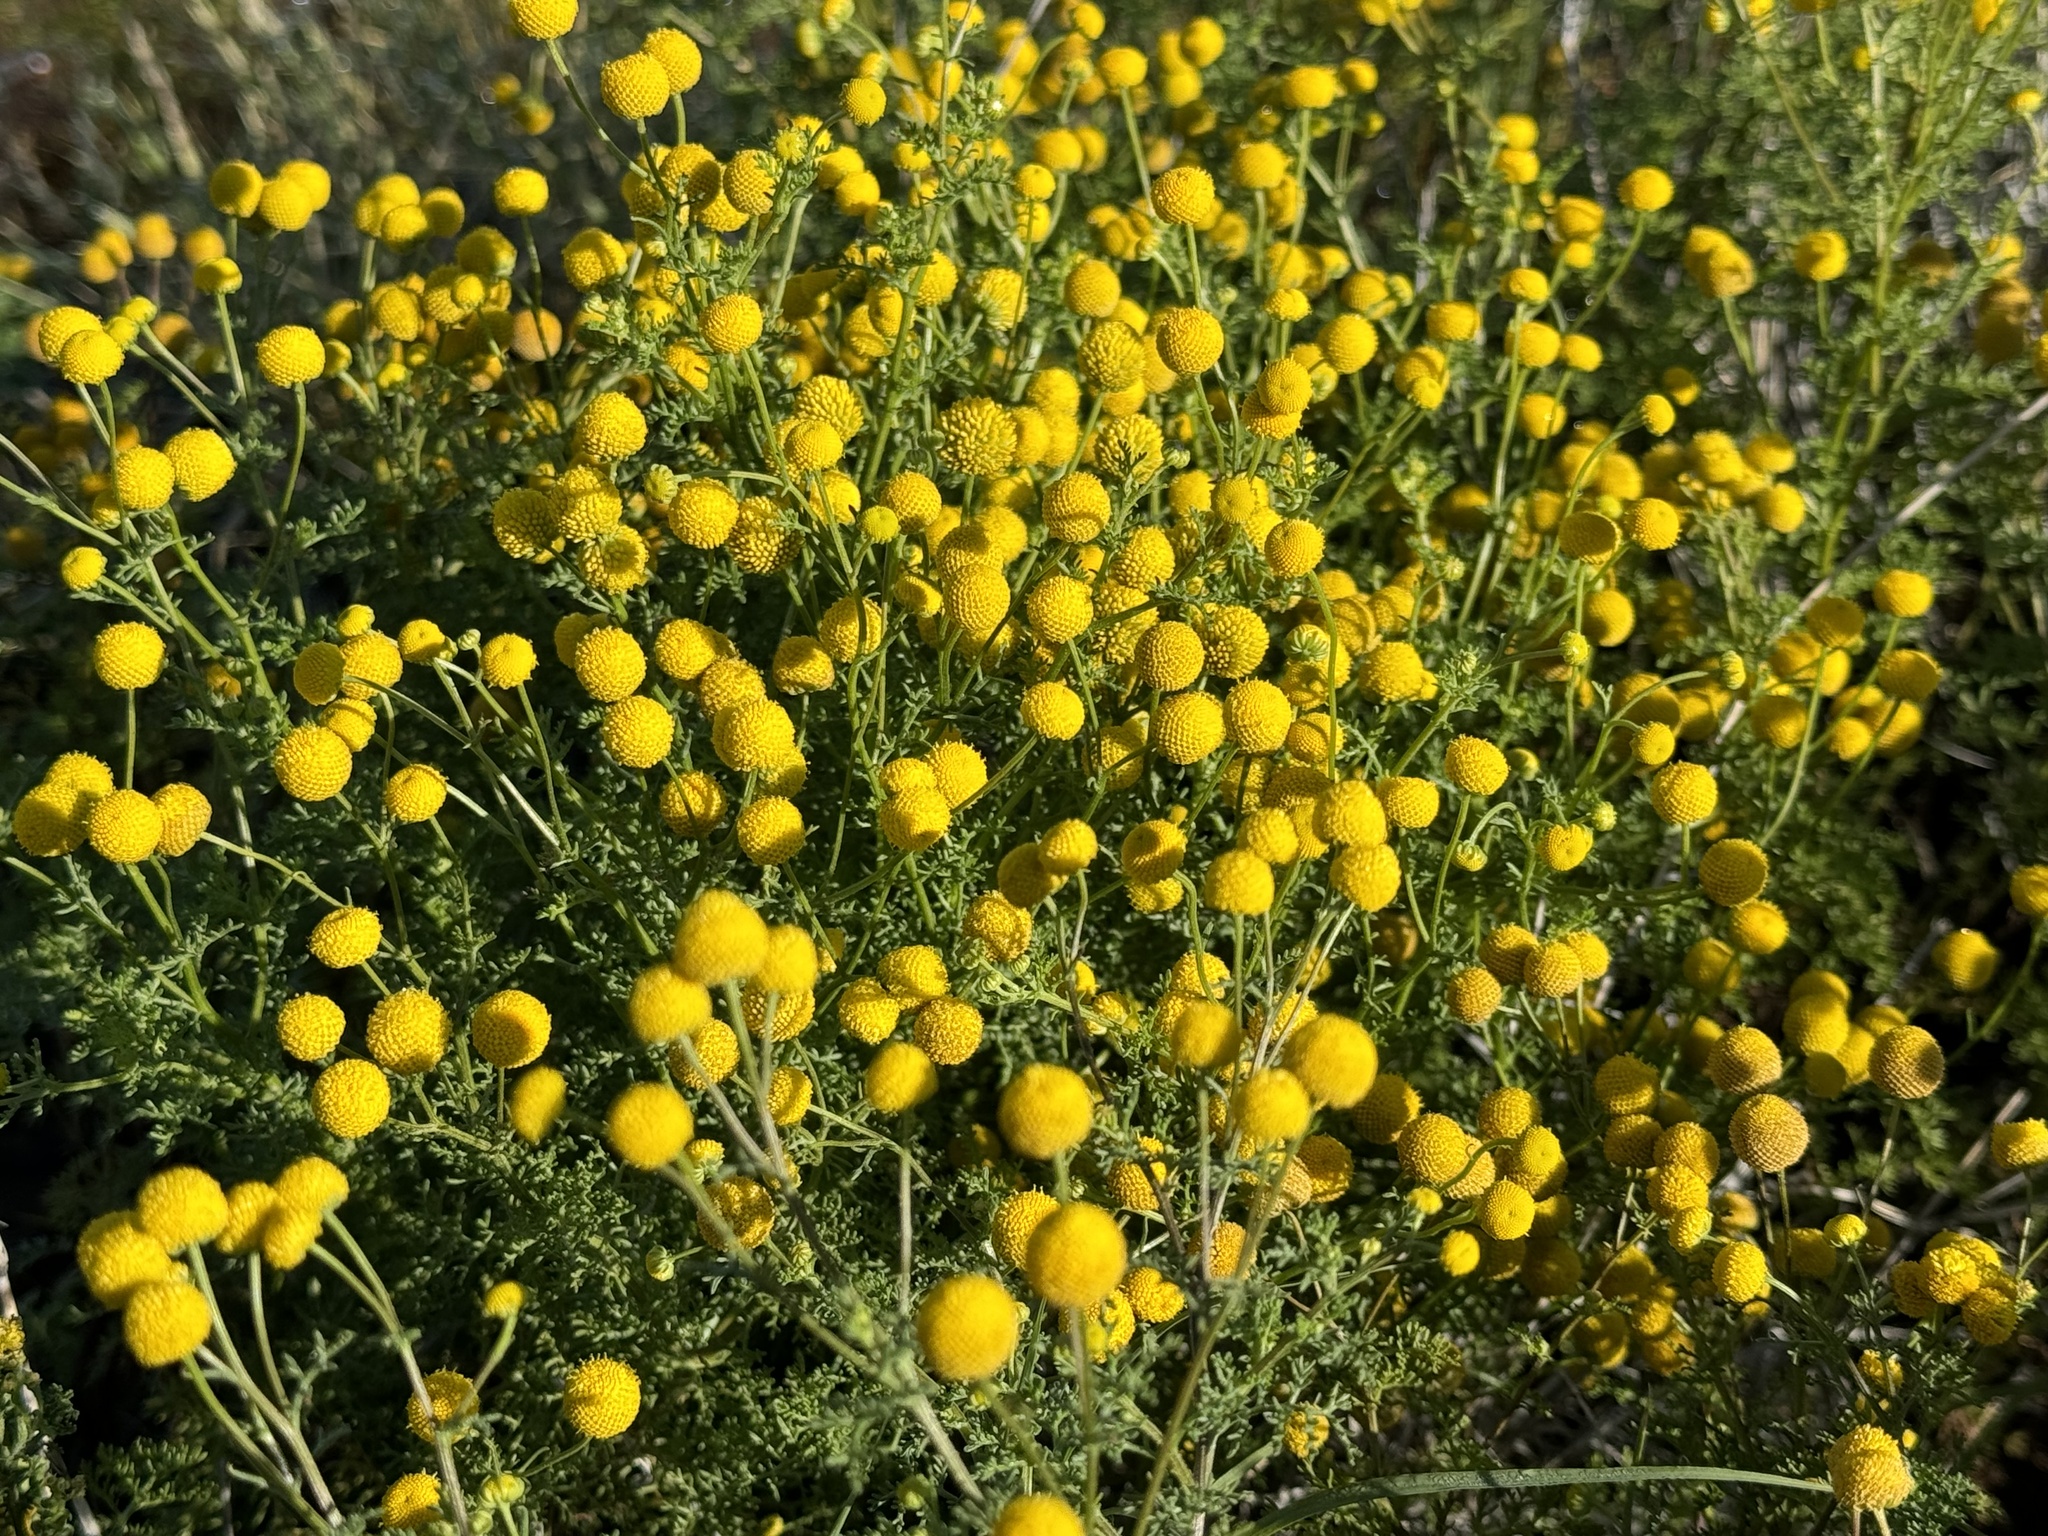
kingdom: Plantae
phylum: Tracheophyta
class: Magnoliopsida
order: Asterales
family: Asteraceae
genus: Oncosiphon
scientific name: Oncosiphon pilulifer
